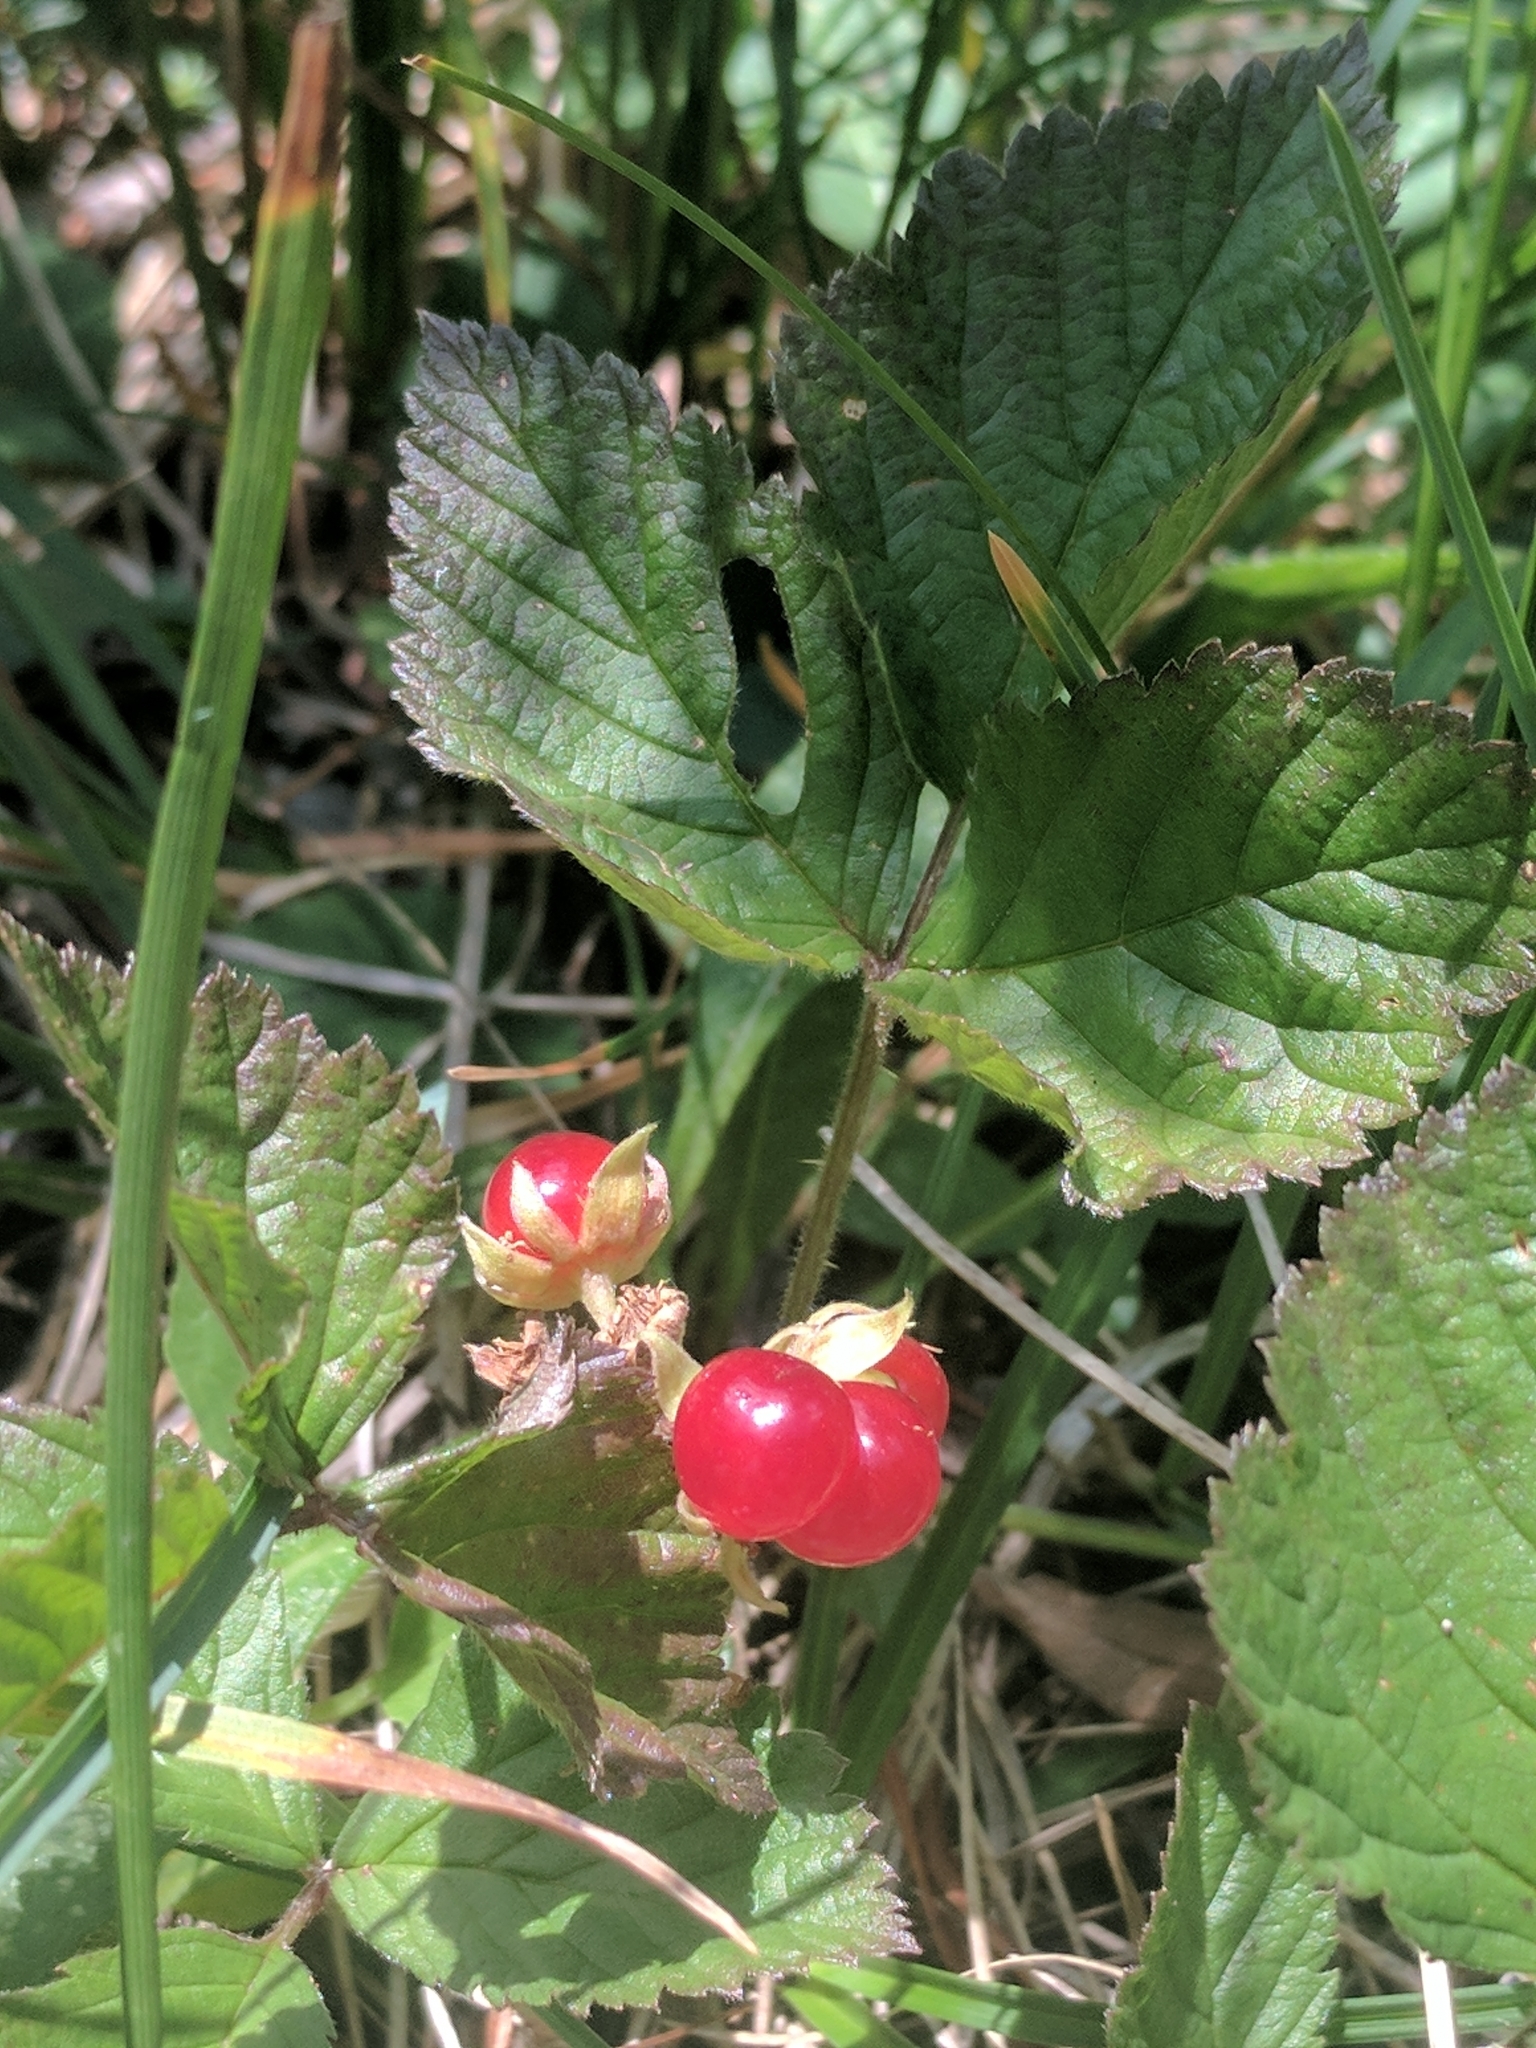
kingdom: Plantae
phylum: Tracheophyta
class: Magnoliopsida
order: Rosales
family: Rosaceae
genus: Rubus
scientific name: Rubus saxatilis
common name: Stone bramble
